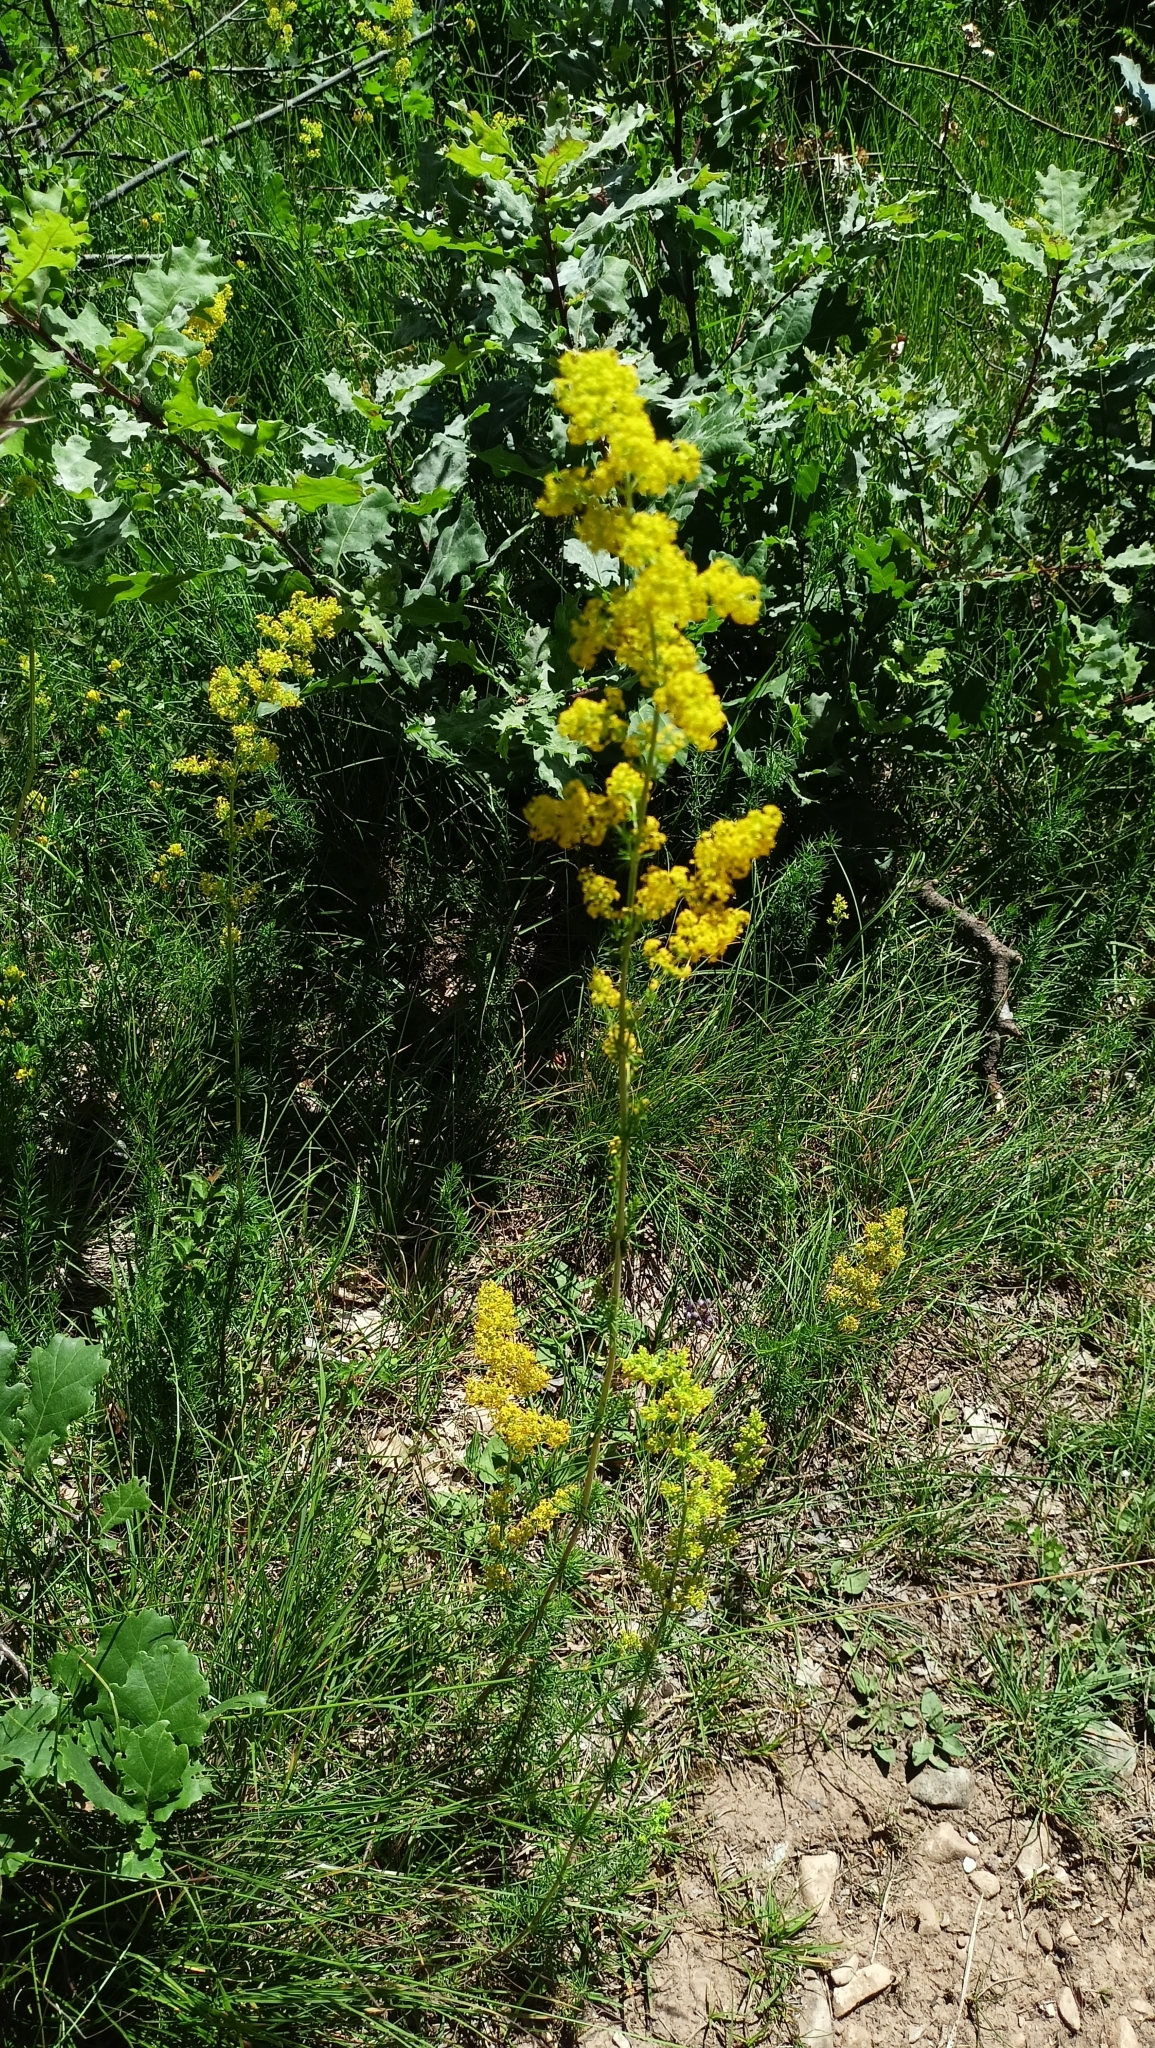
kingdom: Plantae
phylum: Tracheophyta
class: Magnoliopsida
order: Gentianales
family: Rubiaceae
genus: Galium
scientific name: Galium verum
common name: Lady's bedstraw
